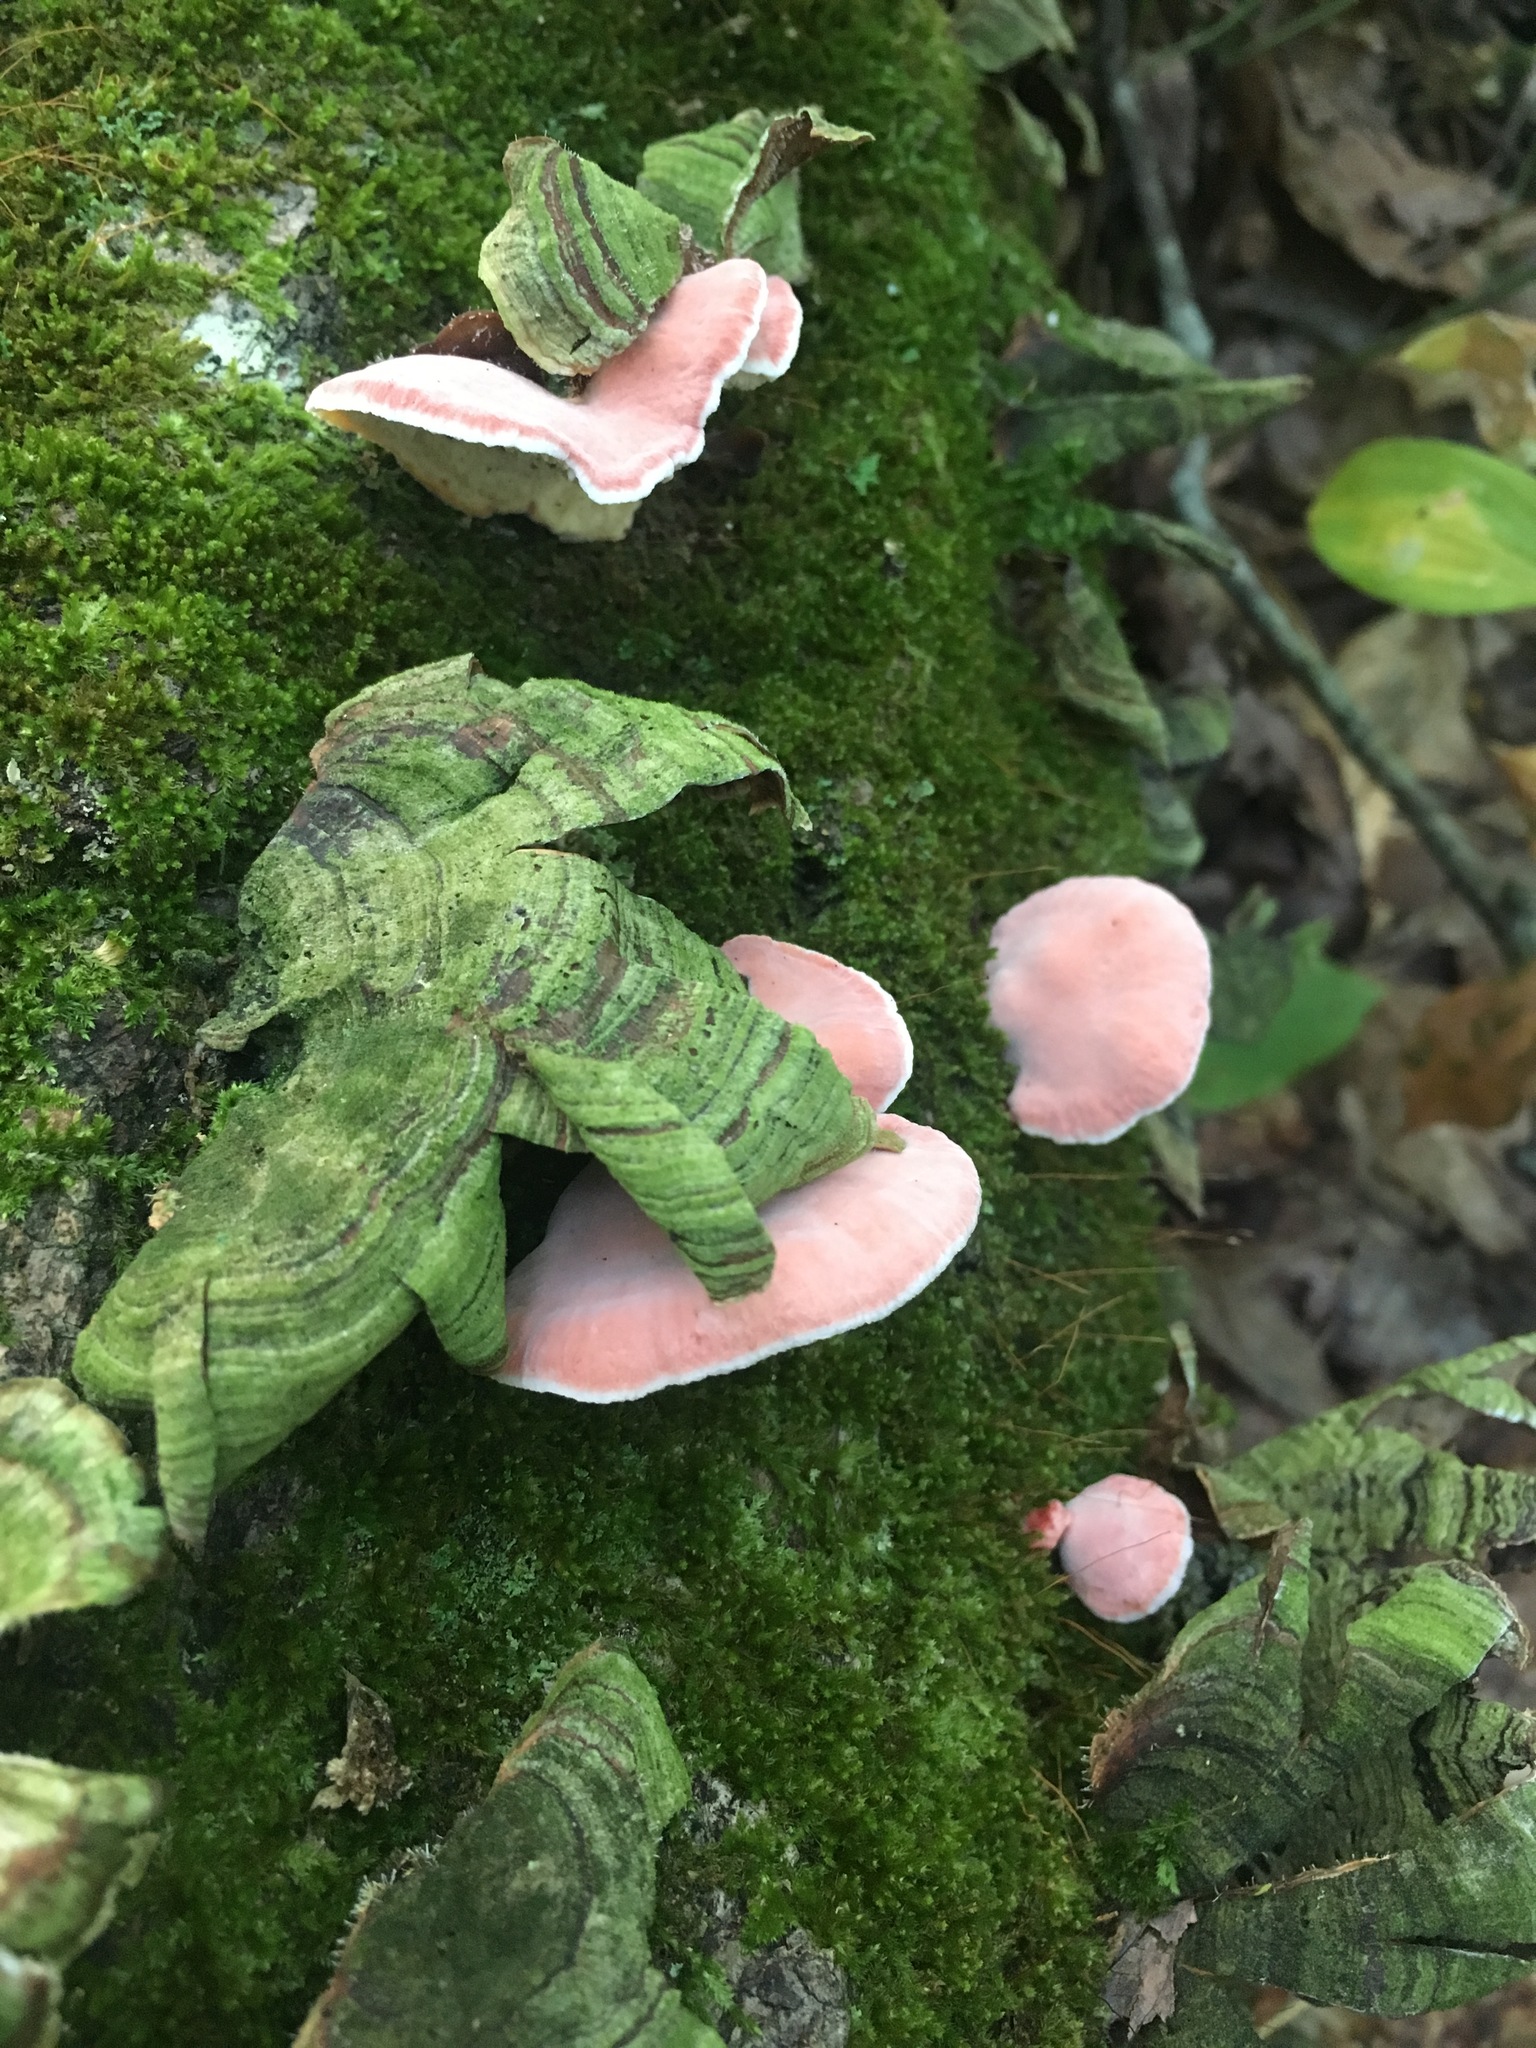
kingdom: Fungi
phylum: Basidiomycota
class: Agaricomycetes
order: Polyporales
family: Irpicaceae
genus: Byssomerulius
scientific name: Byssomerulius incarnatus
